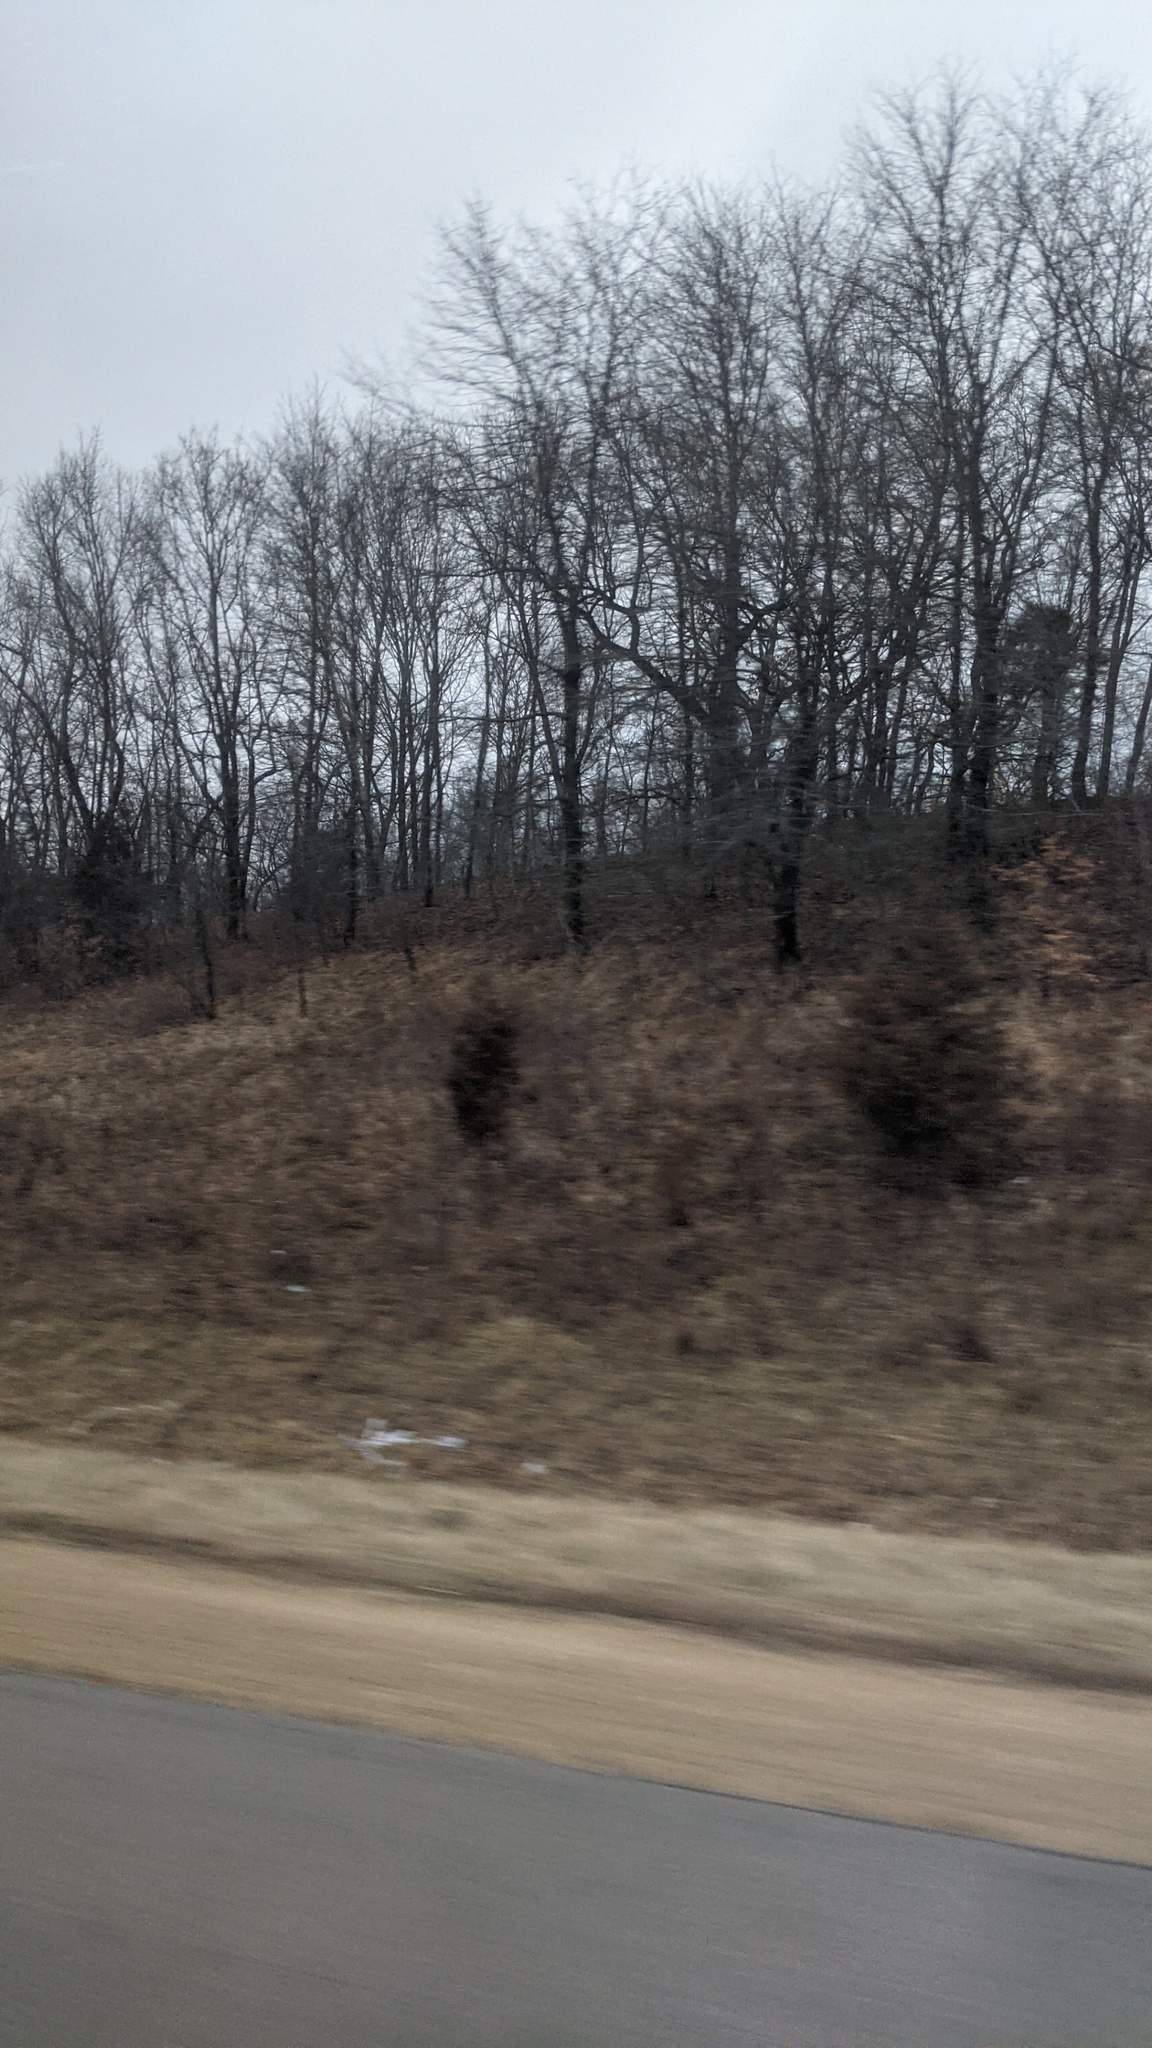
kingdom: Plantae
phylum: Tracheophyta
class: Pinopsida
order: Pinales
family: Cupressaceae
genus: Juniperus
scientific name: Juniperus virginiana
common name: Red juniper
